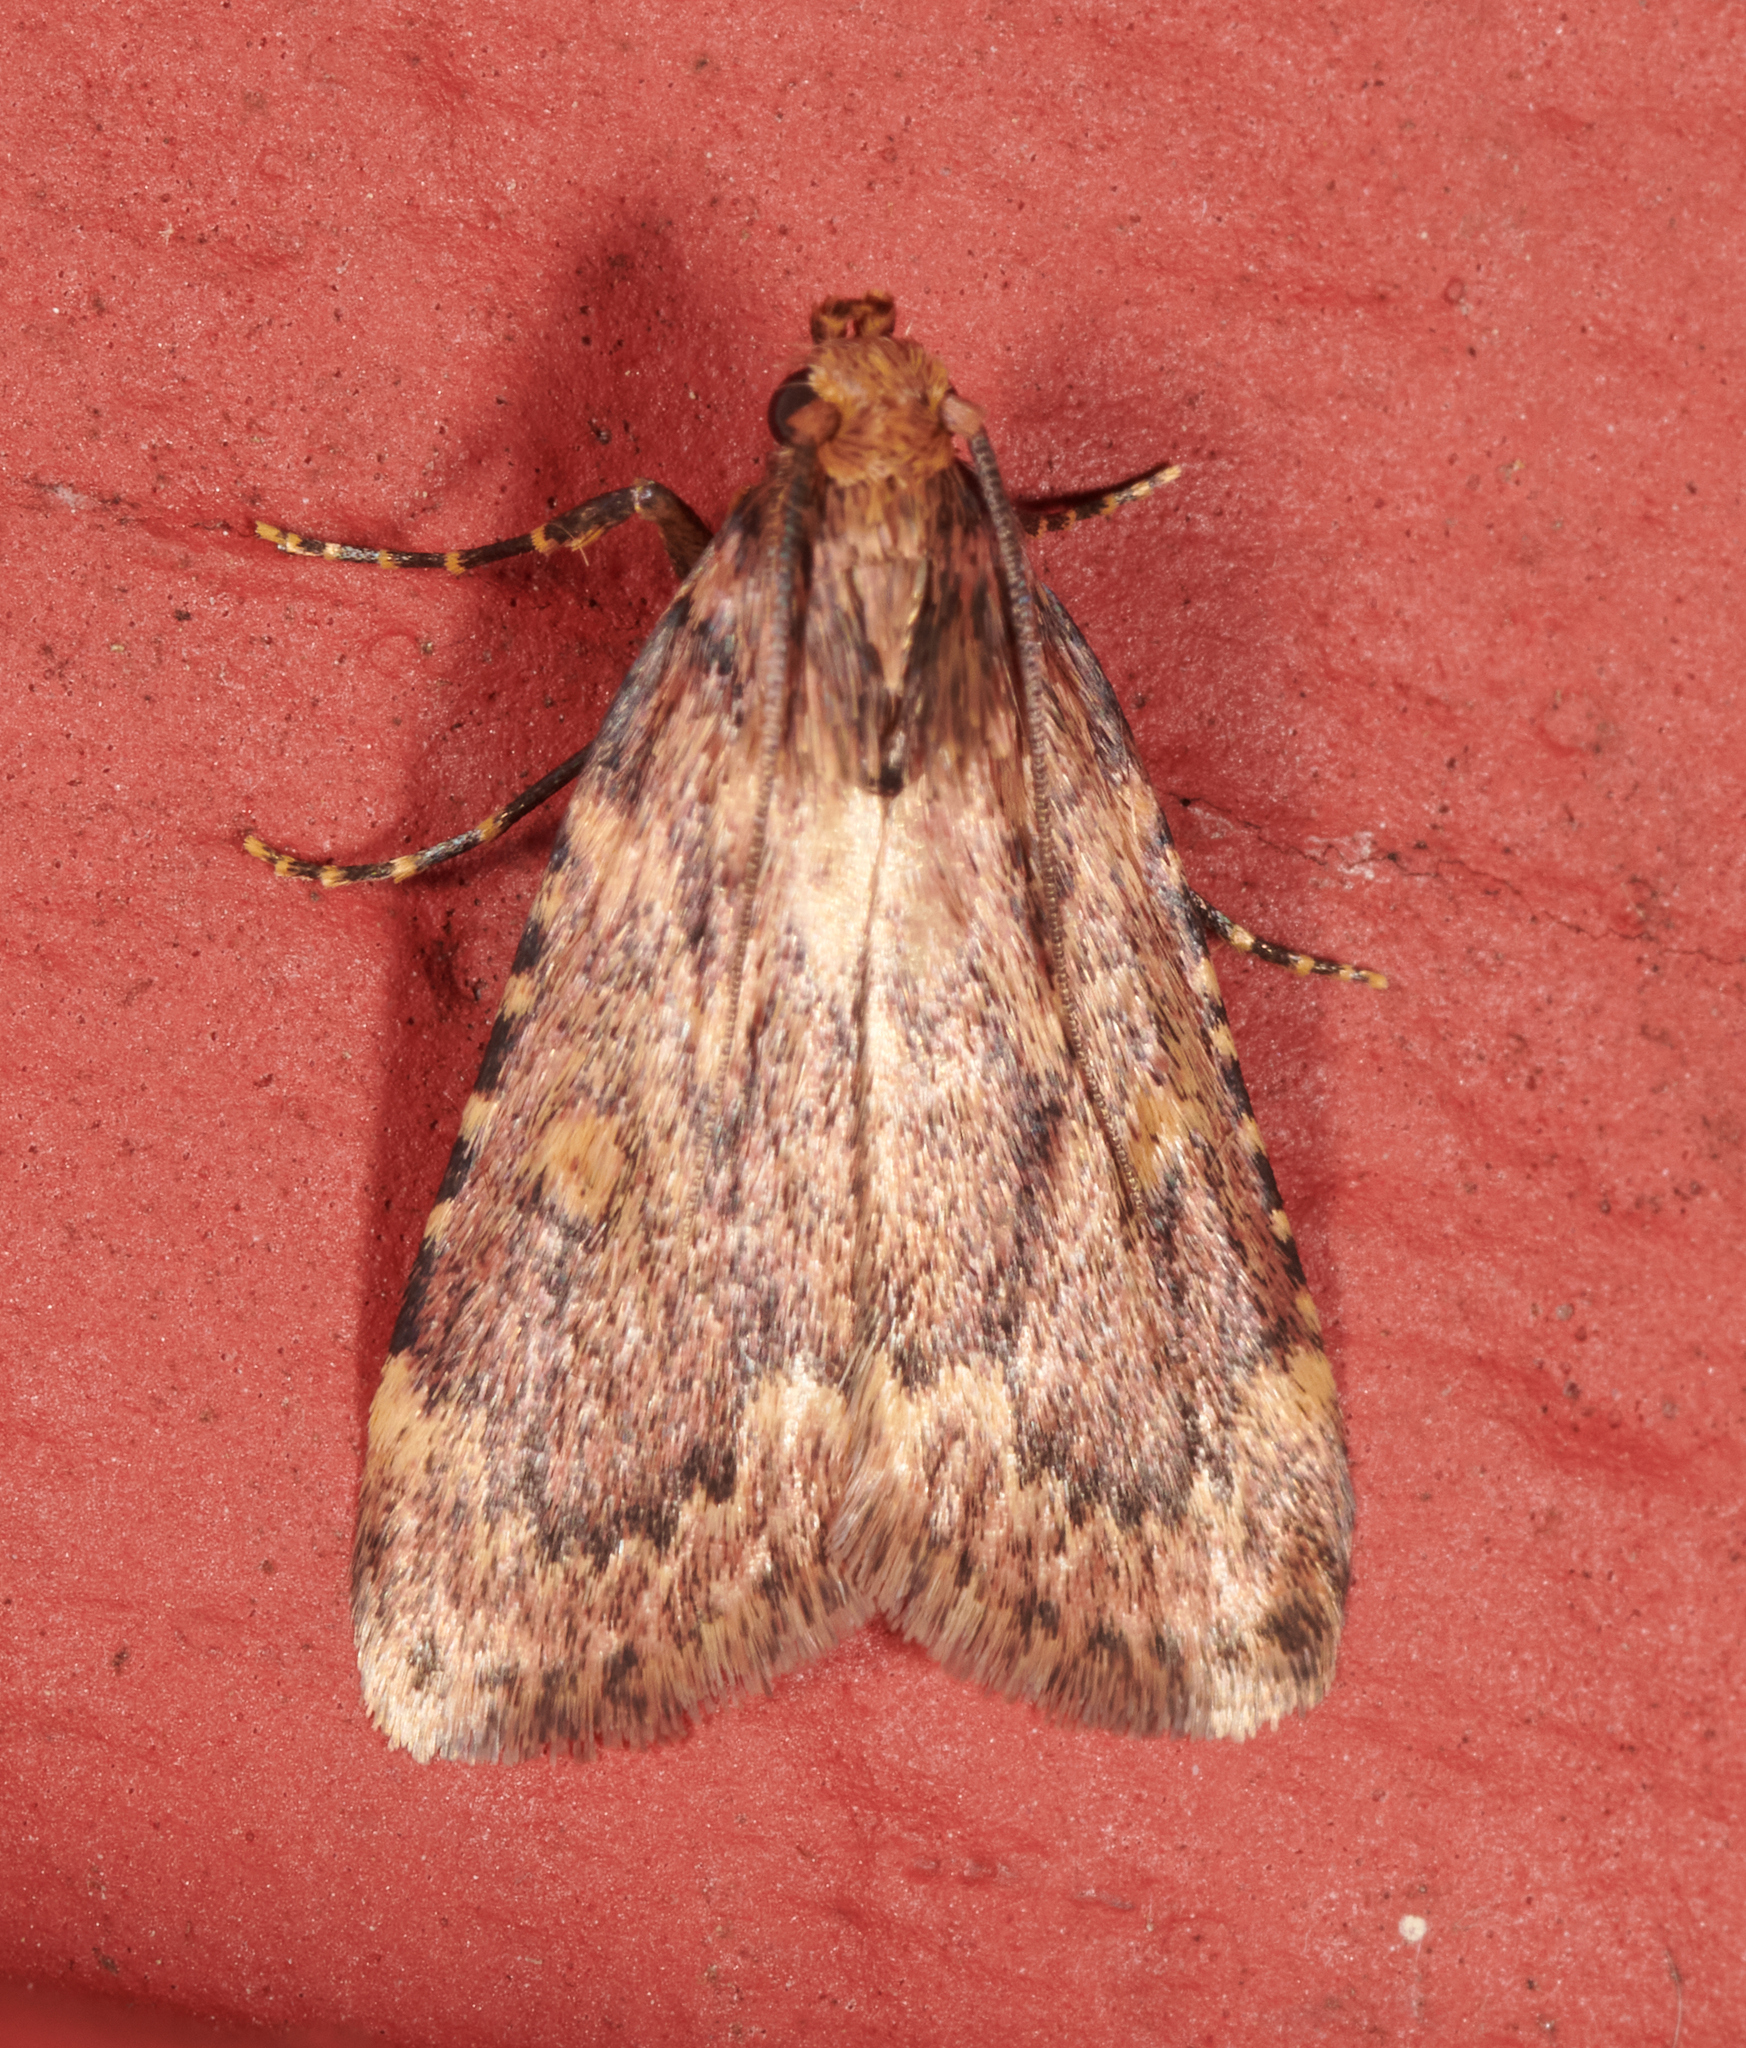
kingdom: Animalia
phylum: Arthropoda
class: Insecta
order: Lepidoptera
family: Pyralidae
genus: Aglossa
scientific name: Aglossa cuprina
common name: Grease moth
